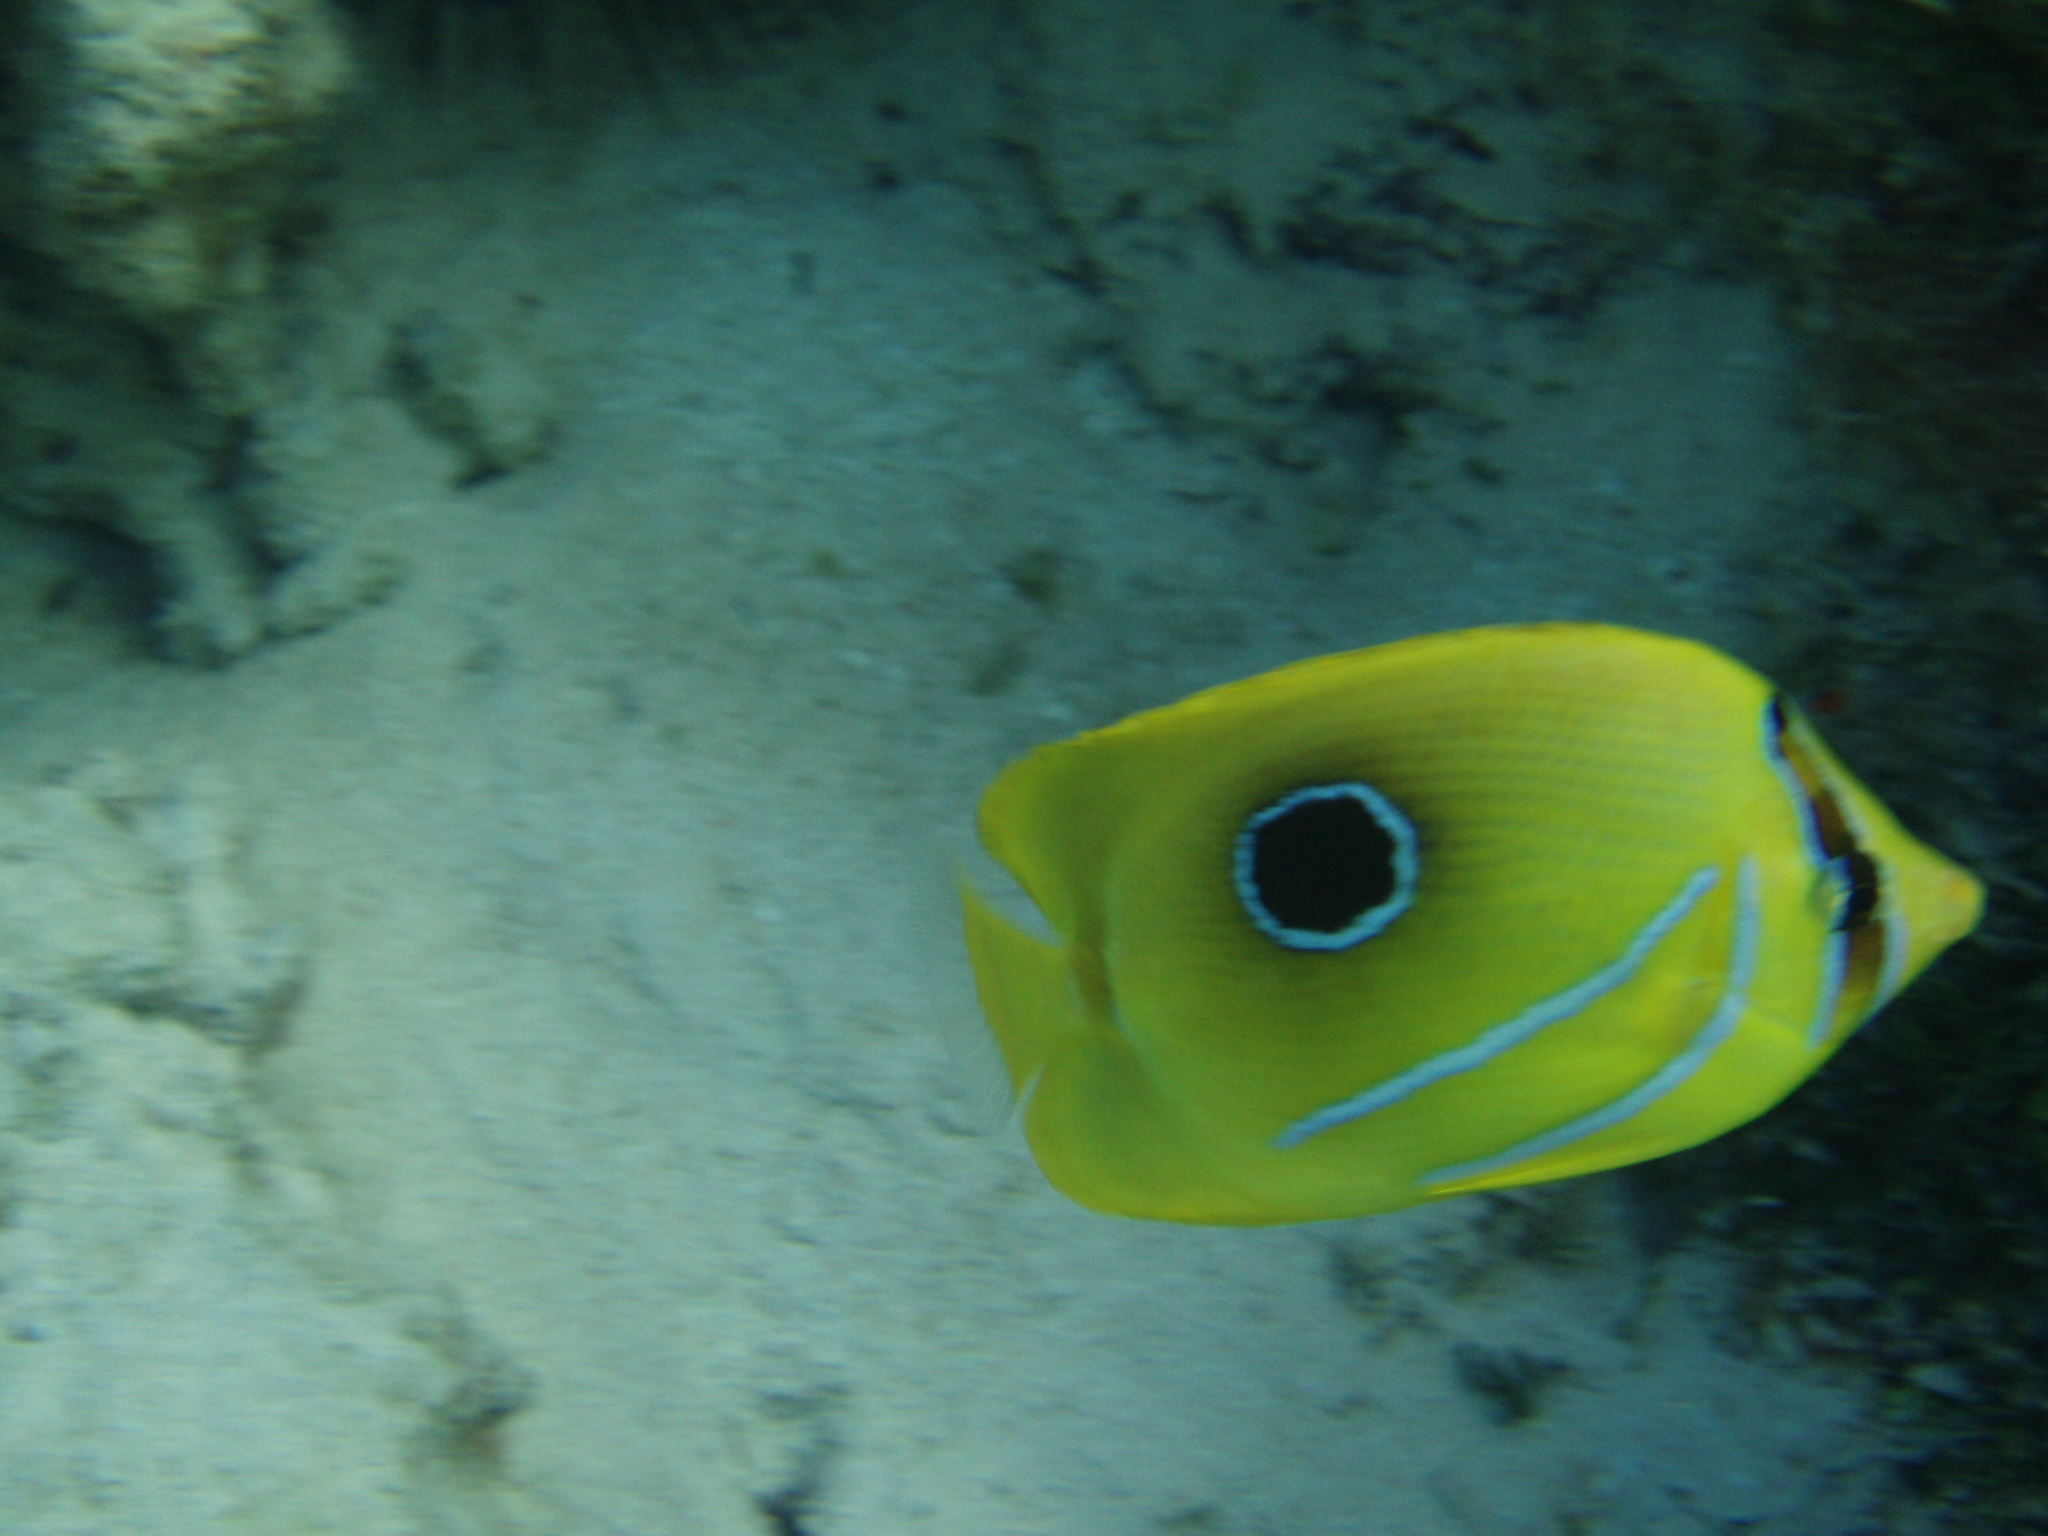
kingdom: Animalia
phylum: Chordata
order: Perciformes
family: Chaetodontidae
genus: Chaetodon
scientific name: Chaetodon bennetti
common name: Bennett's butterflyfish
